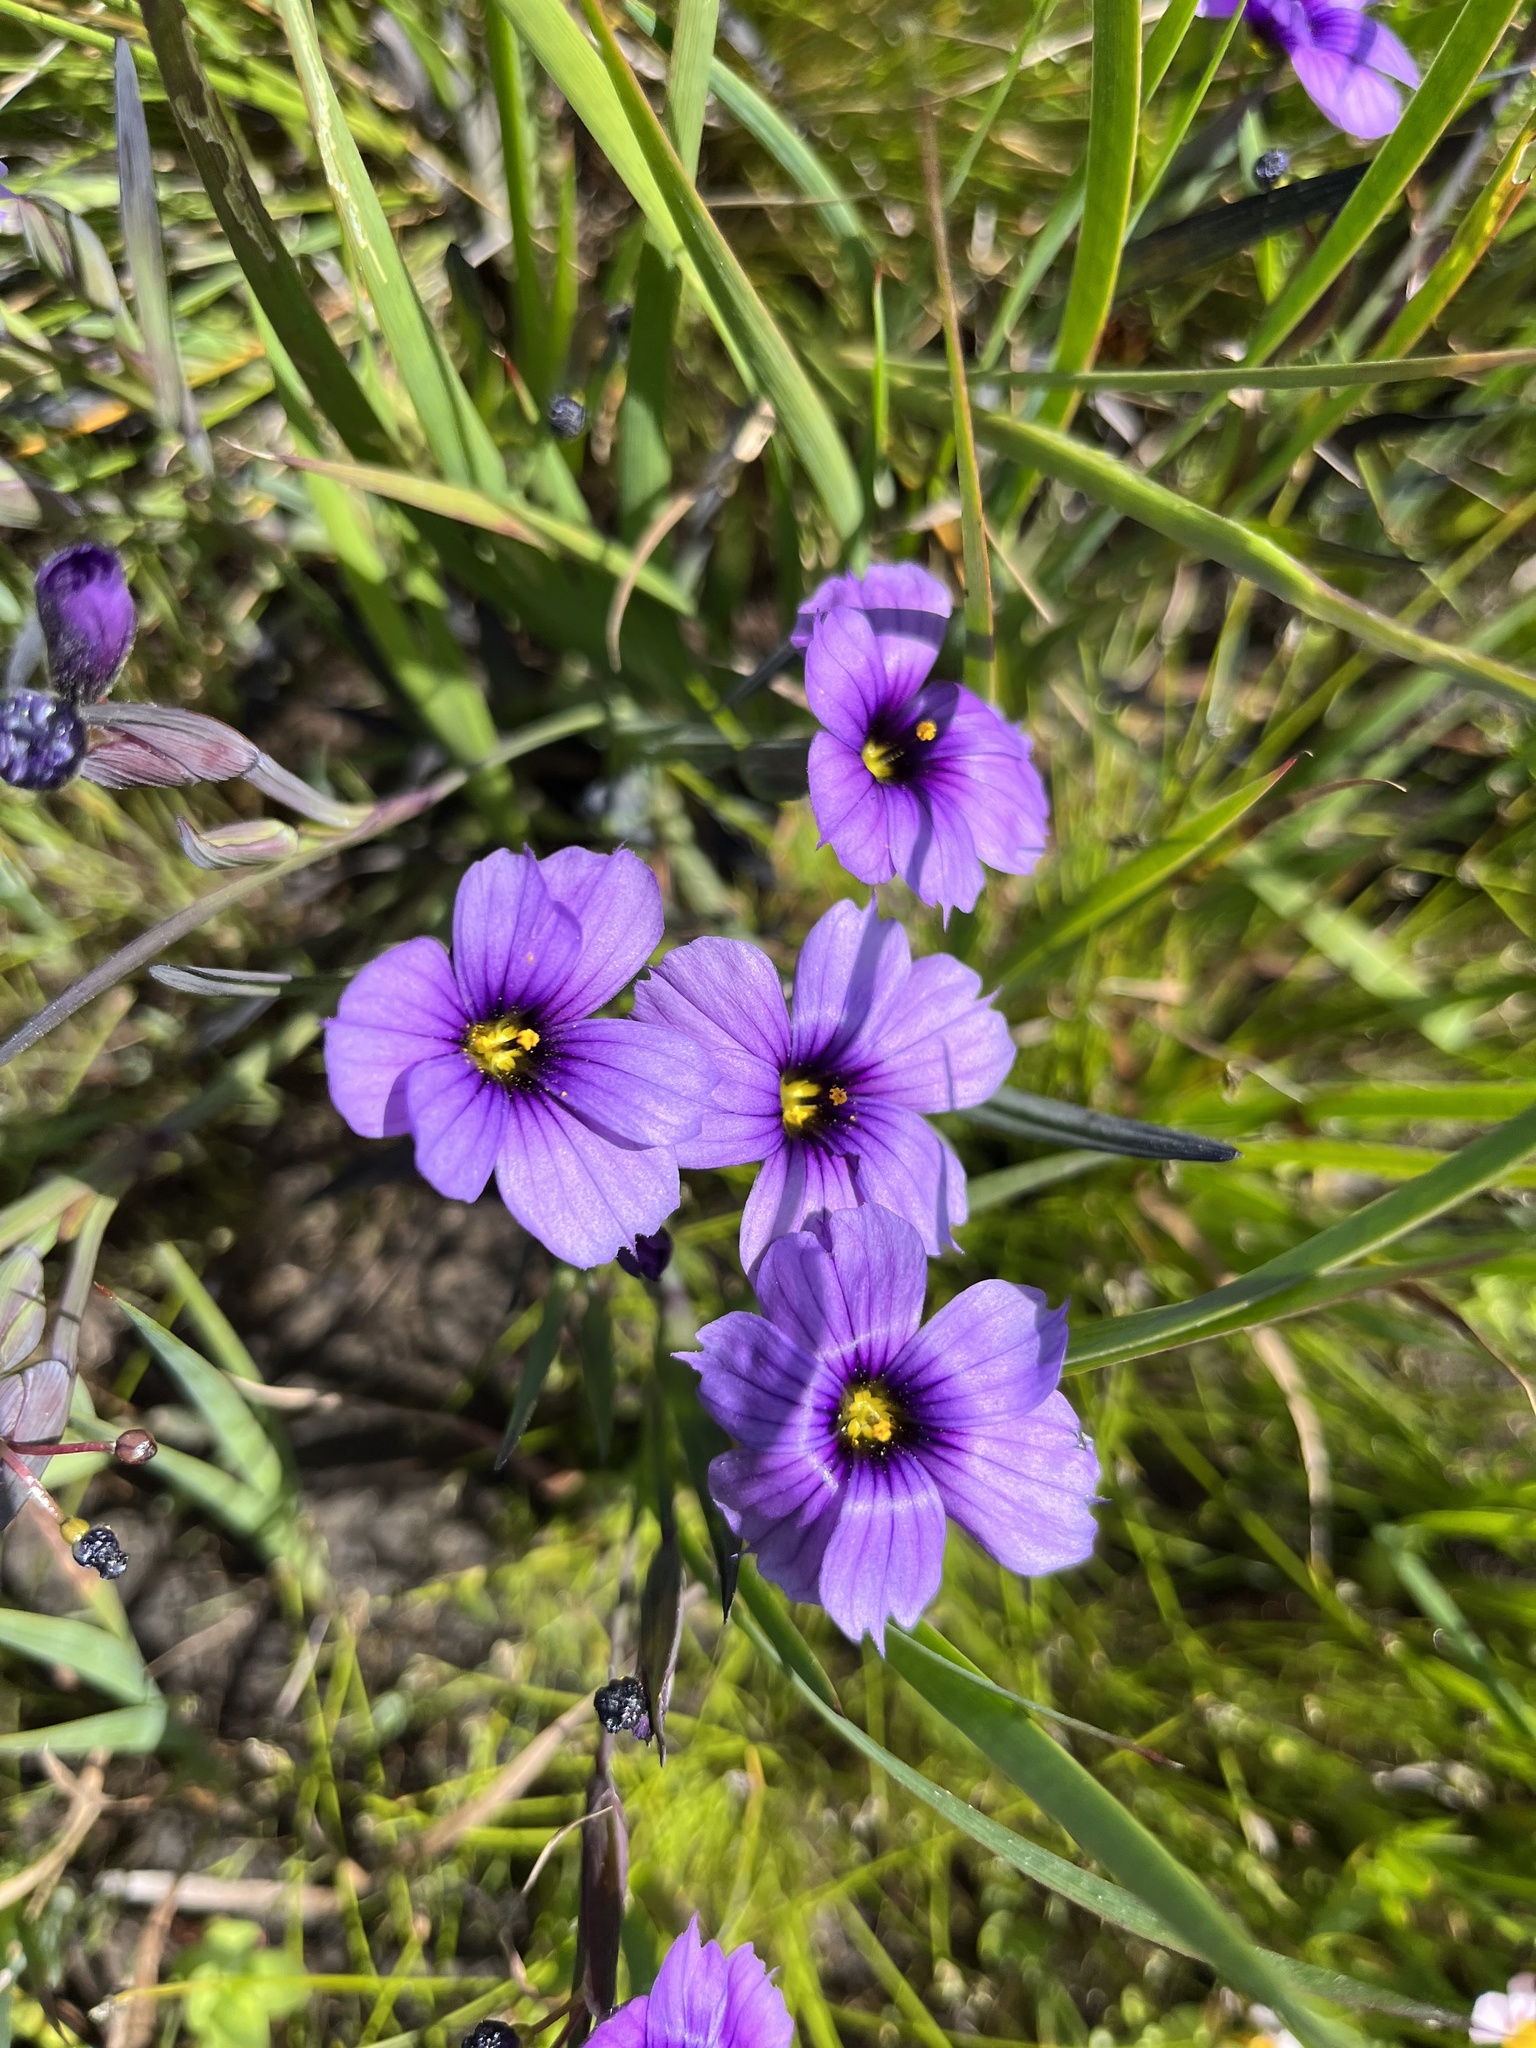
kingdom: Plantae
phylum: Tracheophyta
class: Liliopsida
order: Asparagales
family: Iridaceae
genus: Sisyrinchium
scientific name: Sisyrinchium bellum
